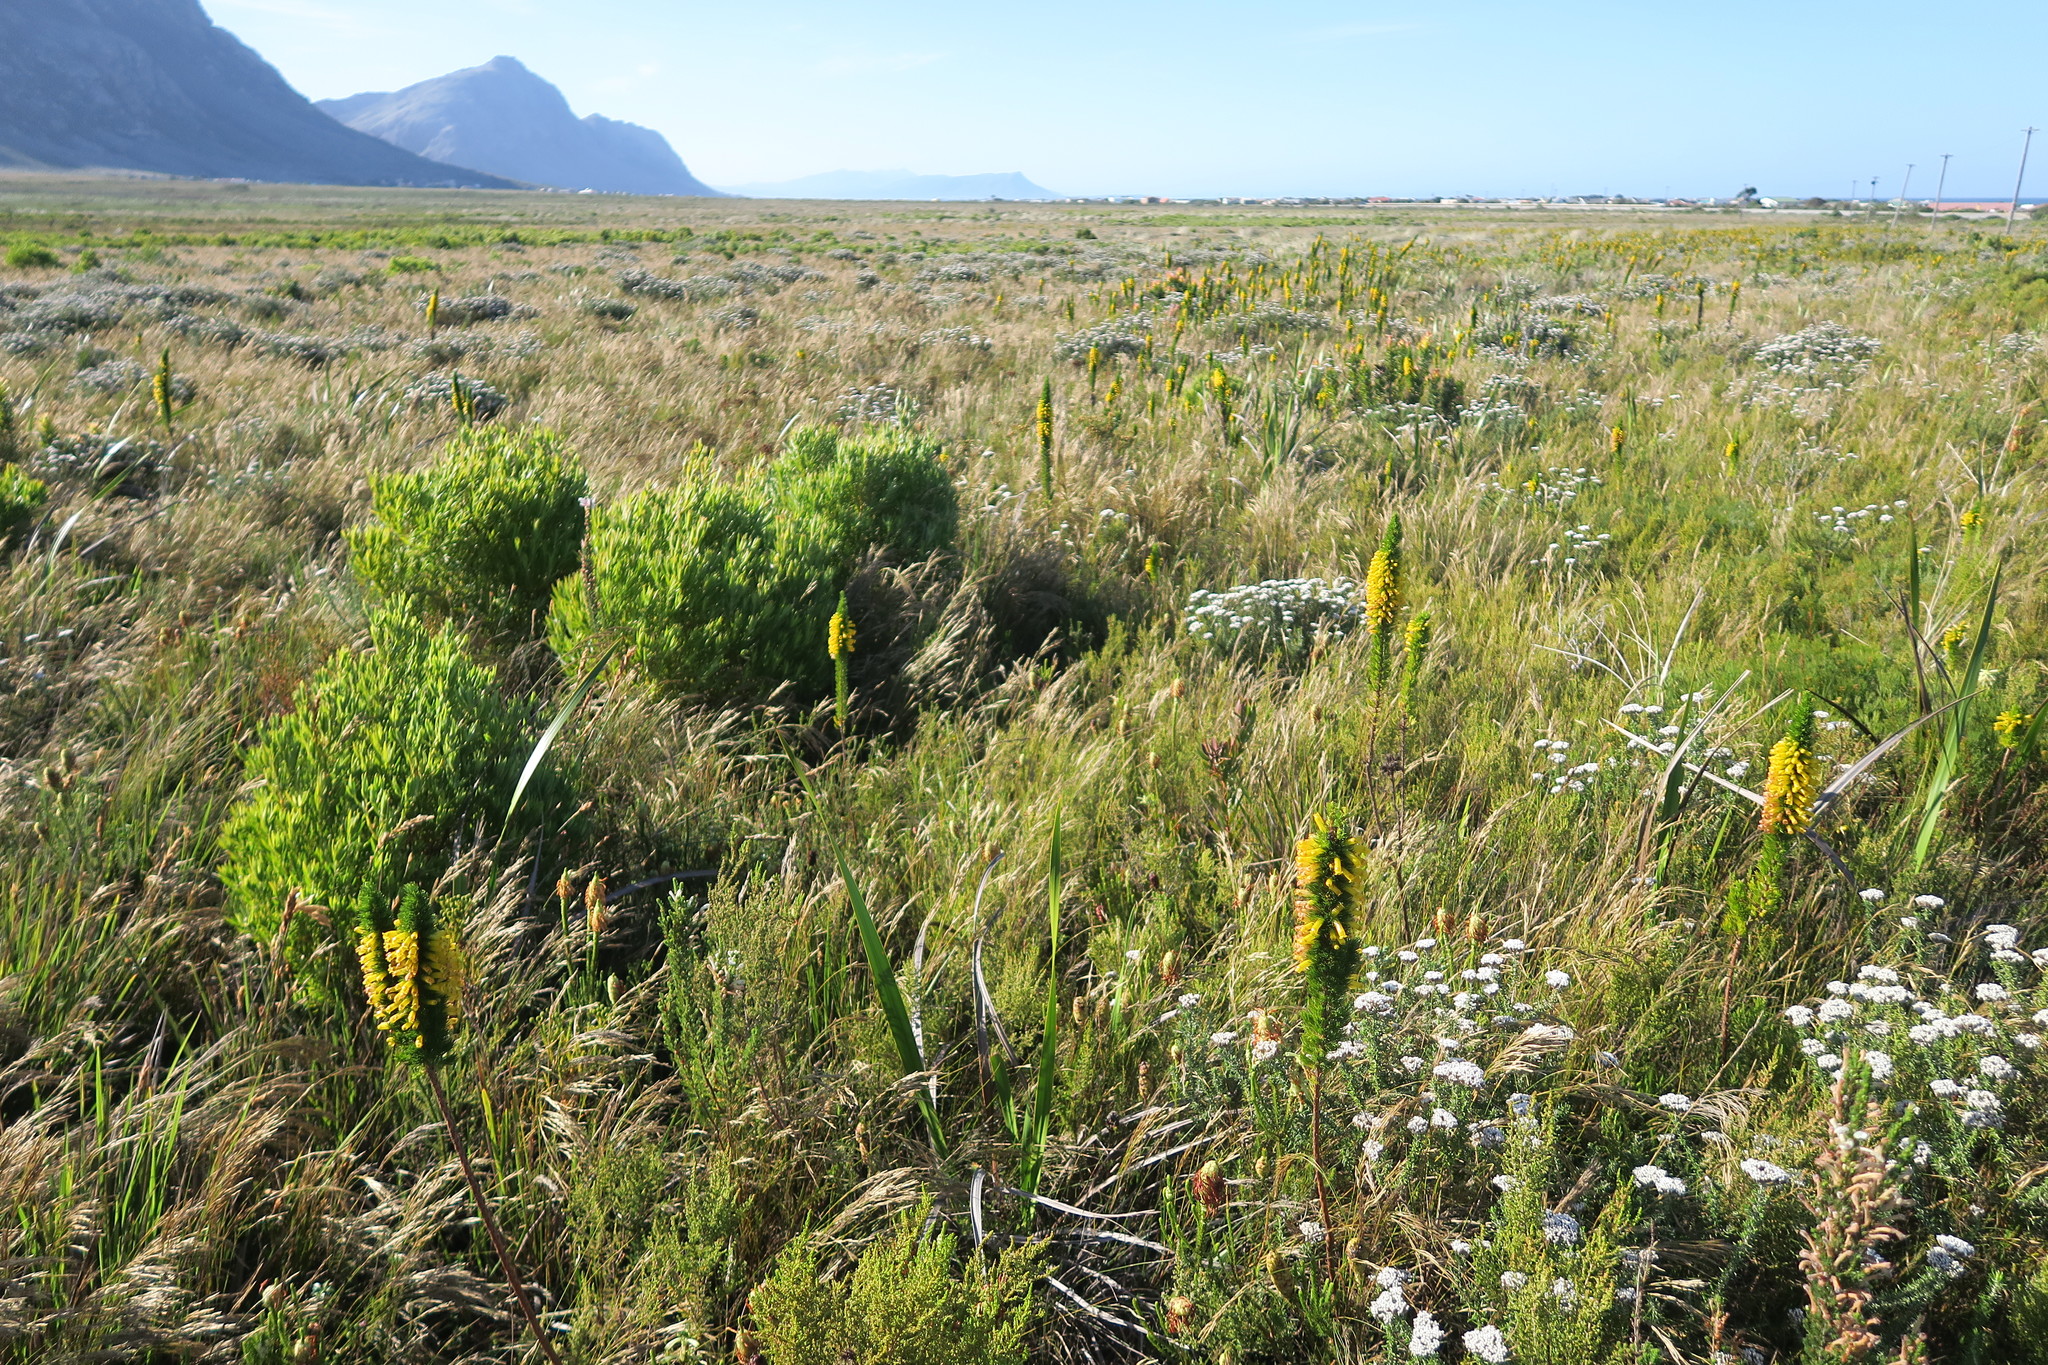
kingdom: Plantae
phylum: Tracheophyta
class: Magnoliopsida
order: Ericales
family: Ericaceae
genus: Erica
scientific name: Erica patersonia
